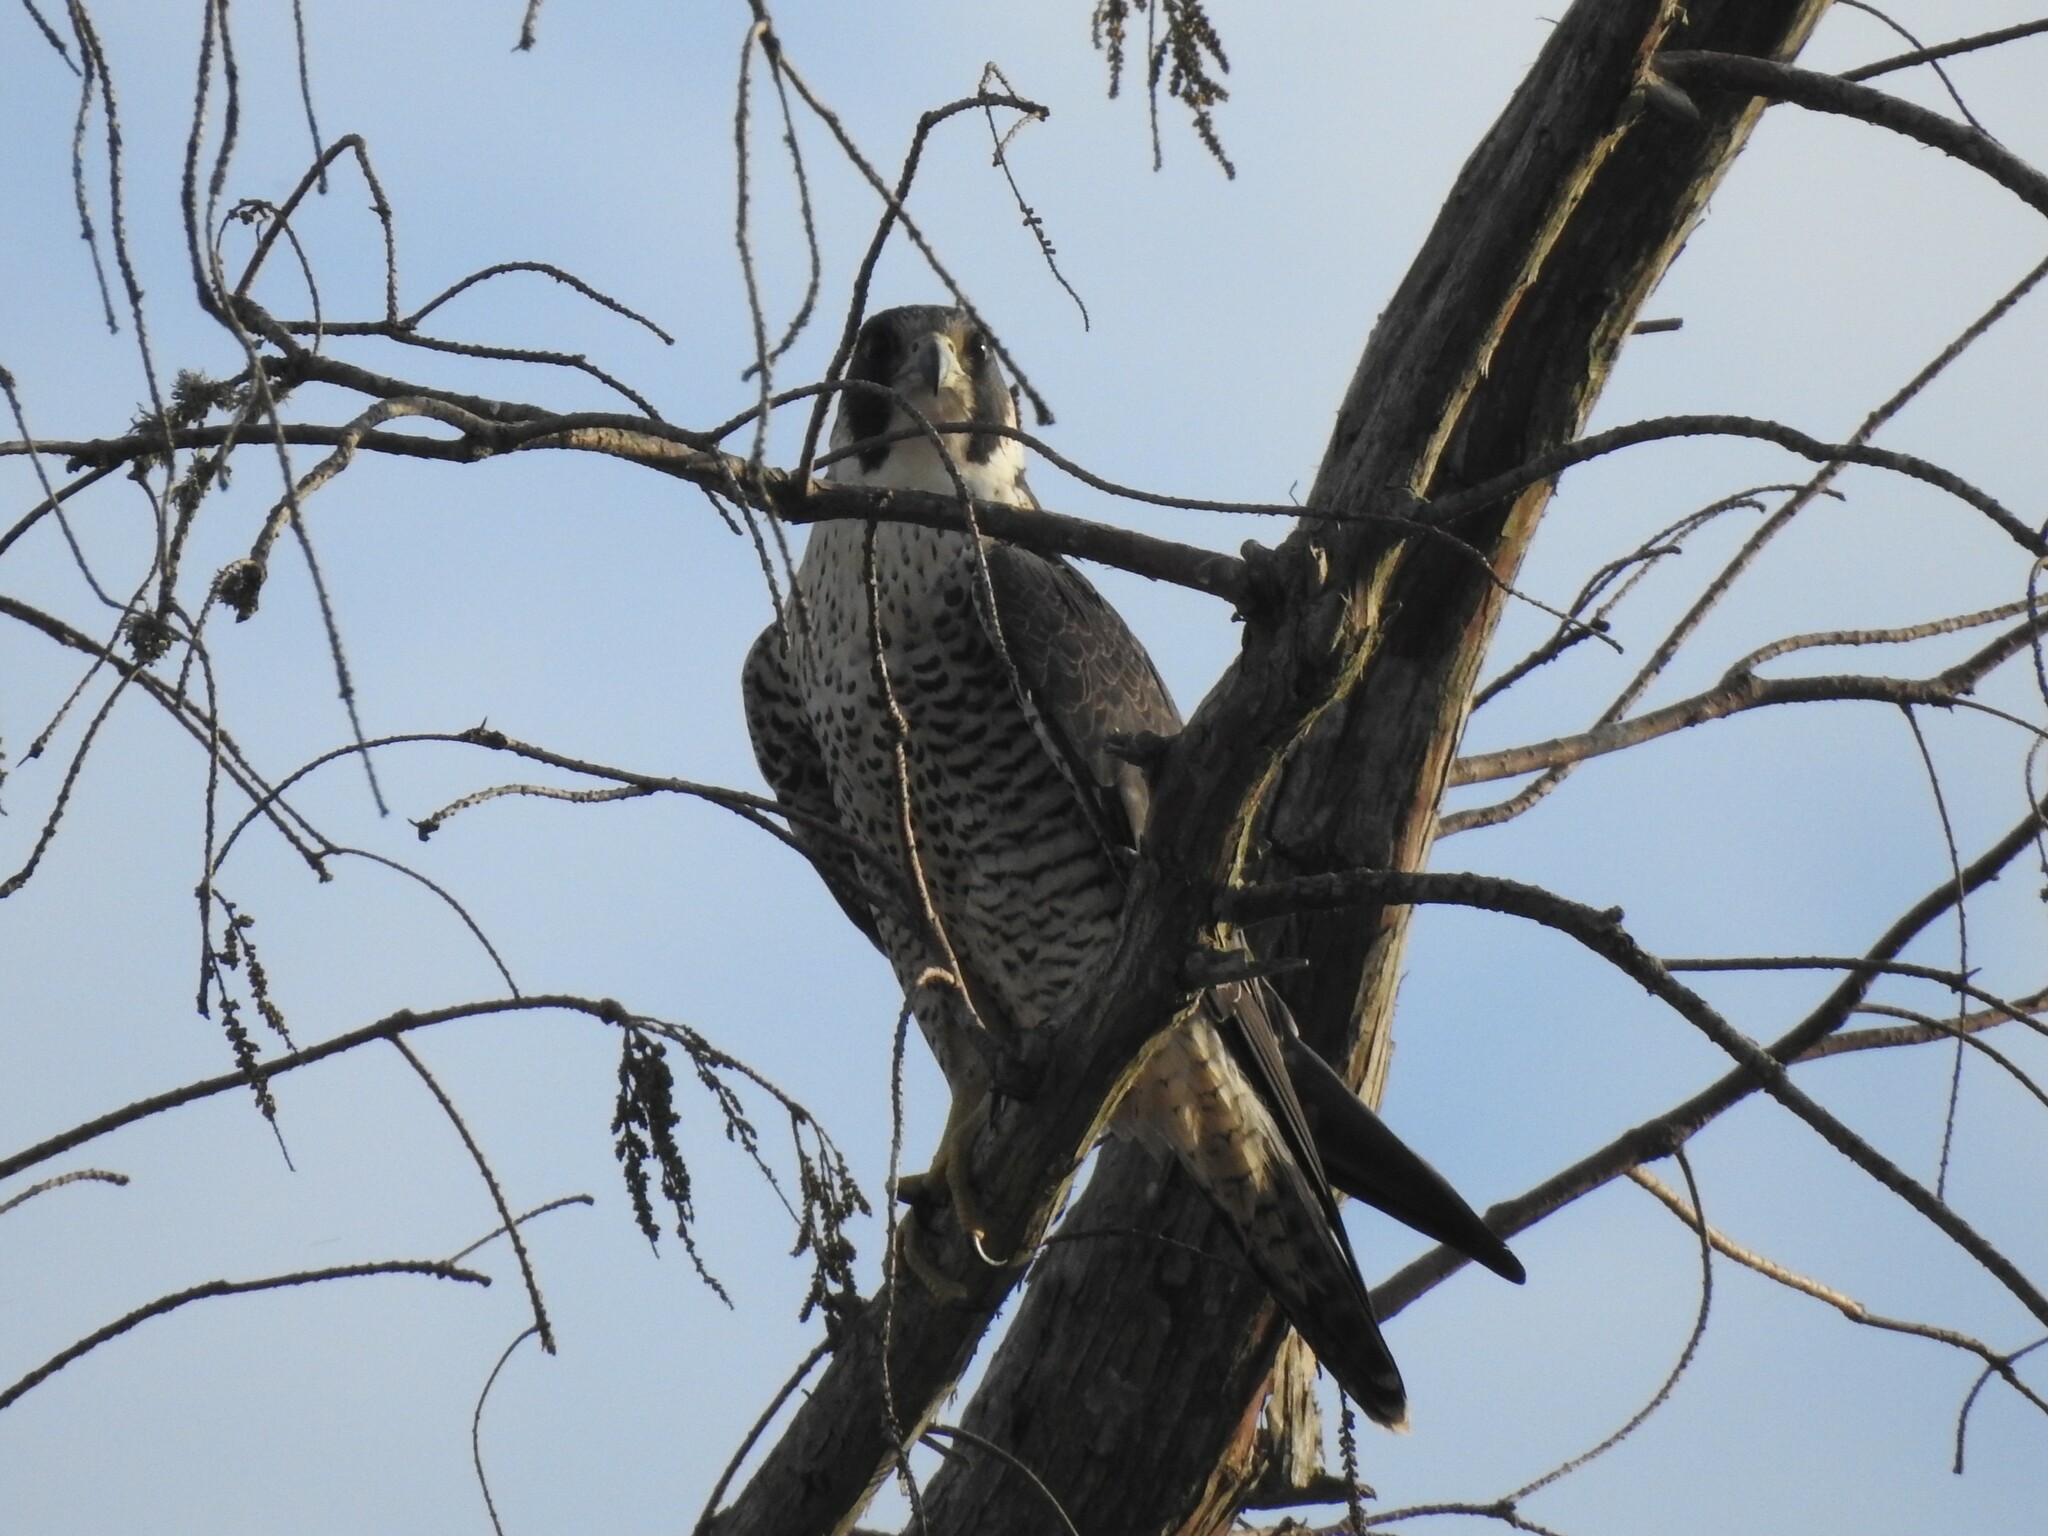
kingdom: Animalia
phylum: Chordata
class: Aves
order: Falconiformes
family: Falconidae
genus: Falco
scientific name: Falco peregrinus
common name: Peregrine falcon
